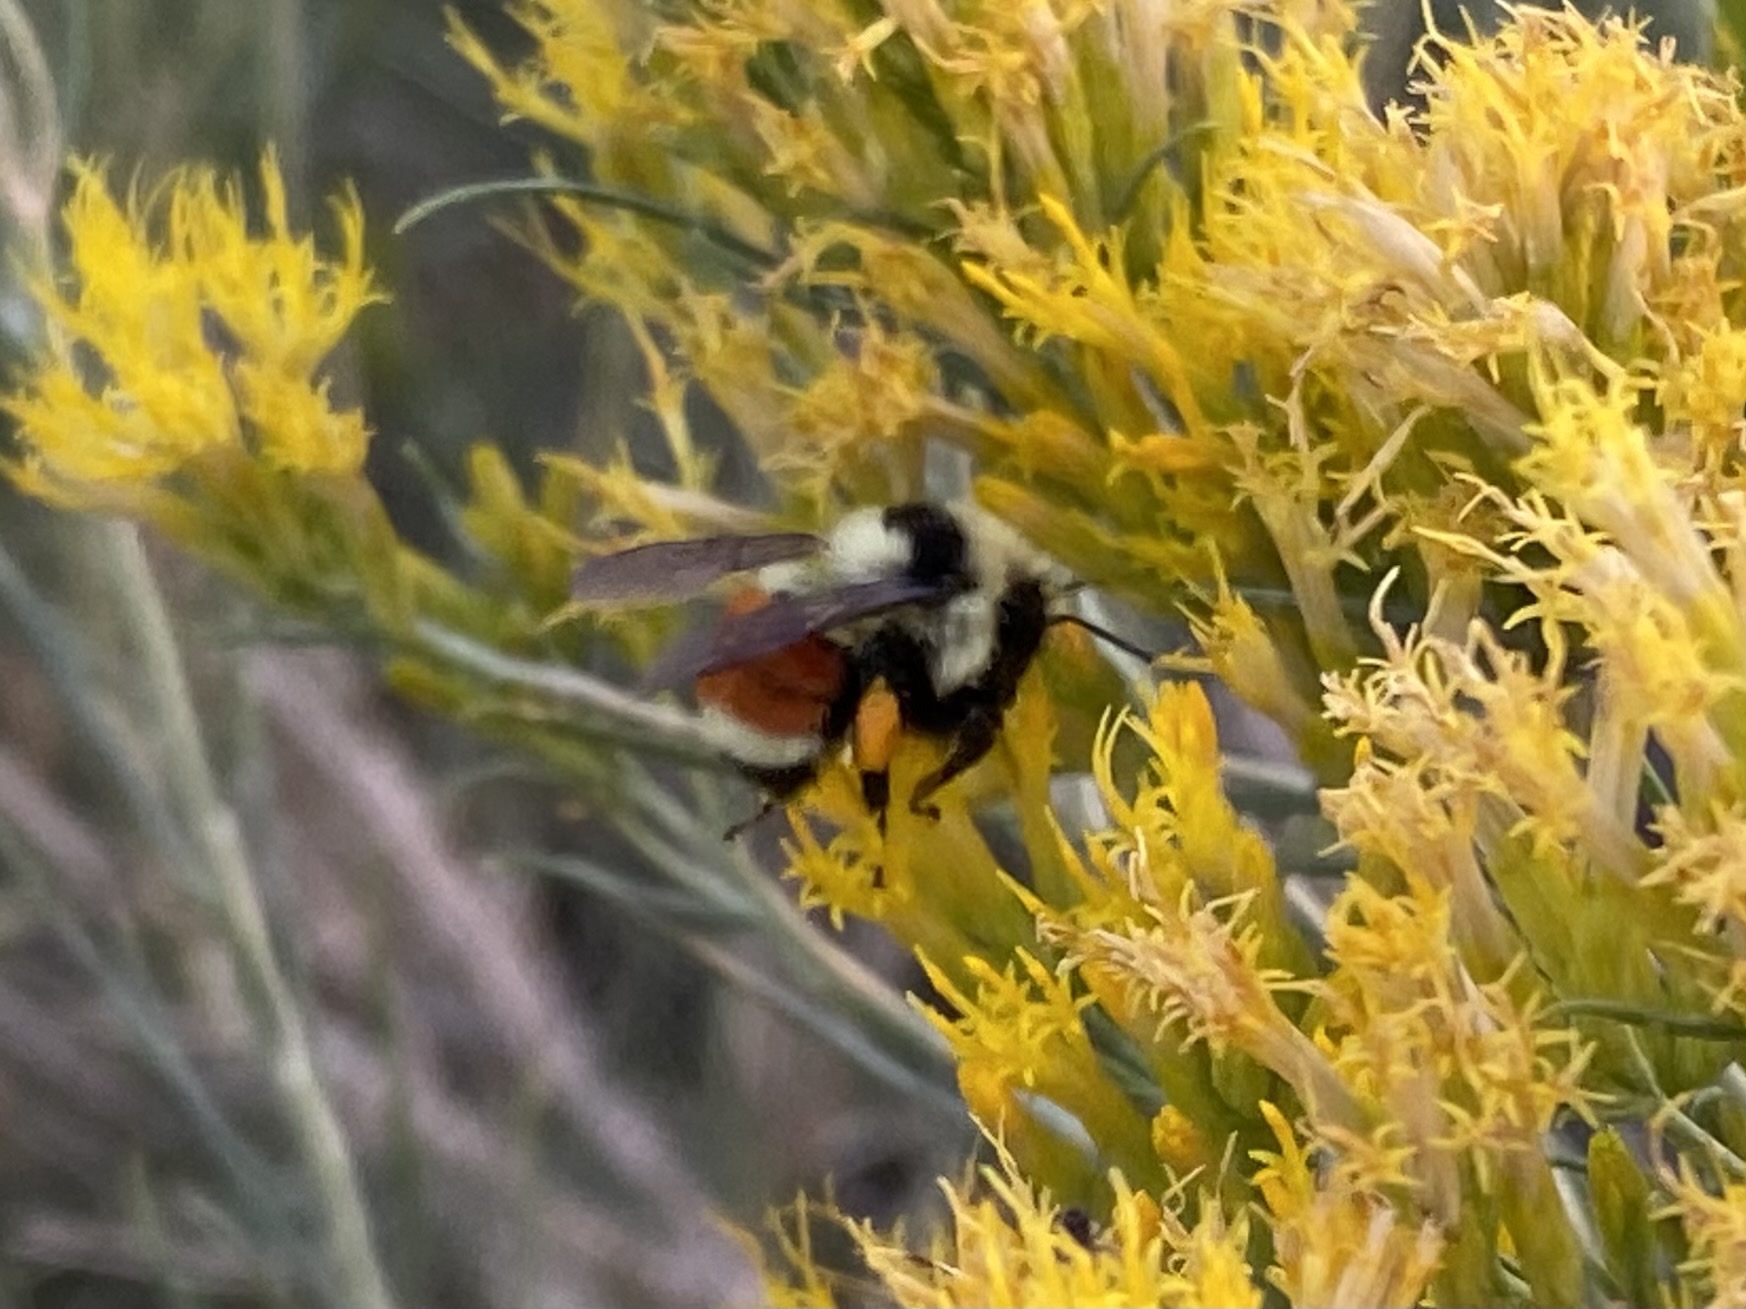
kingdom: Animalia
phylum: Arthropoda
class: Insecta
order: Hymenoptera
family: Apidae
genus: Bombus
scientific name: Bombus huntii
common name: Hunt bumble bee
